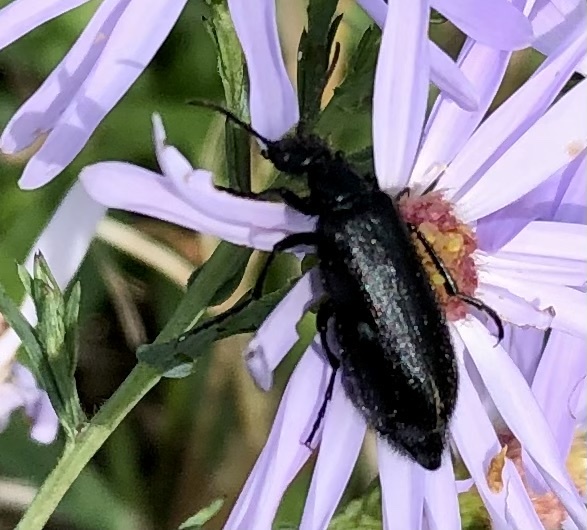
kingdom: Animalia
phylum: Arthropoda
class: Insecta
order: Coleoptera
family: Meloidae
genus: Epicauta
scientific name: Epicauta puncticollis
